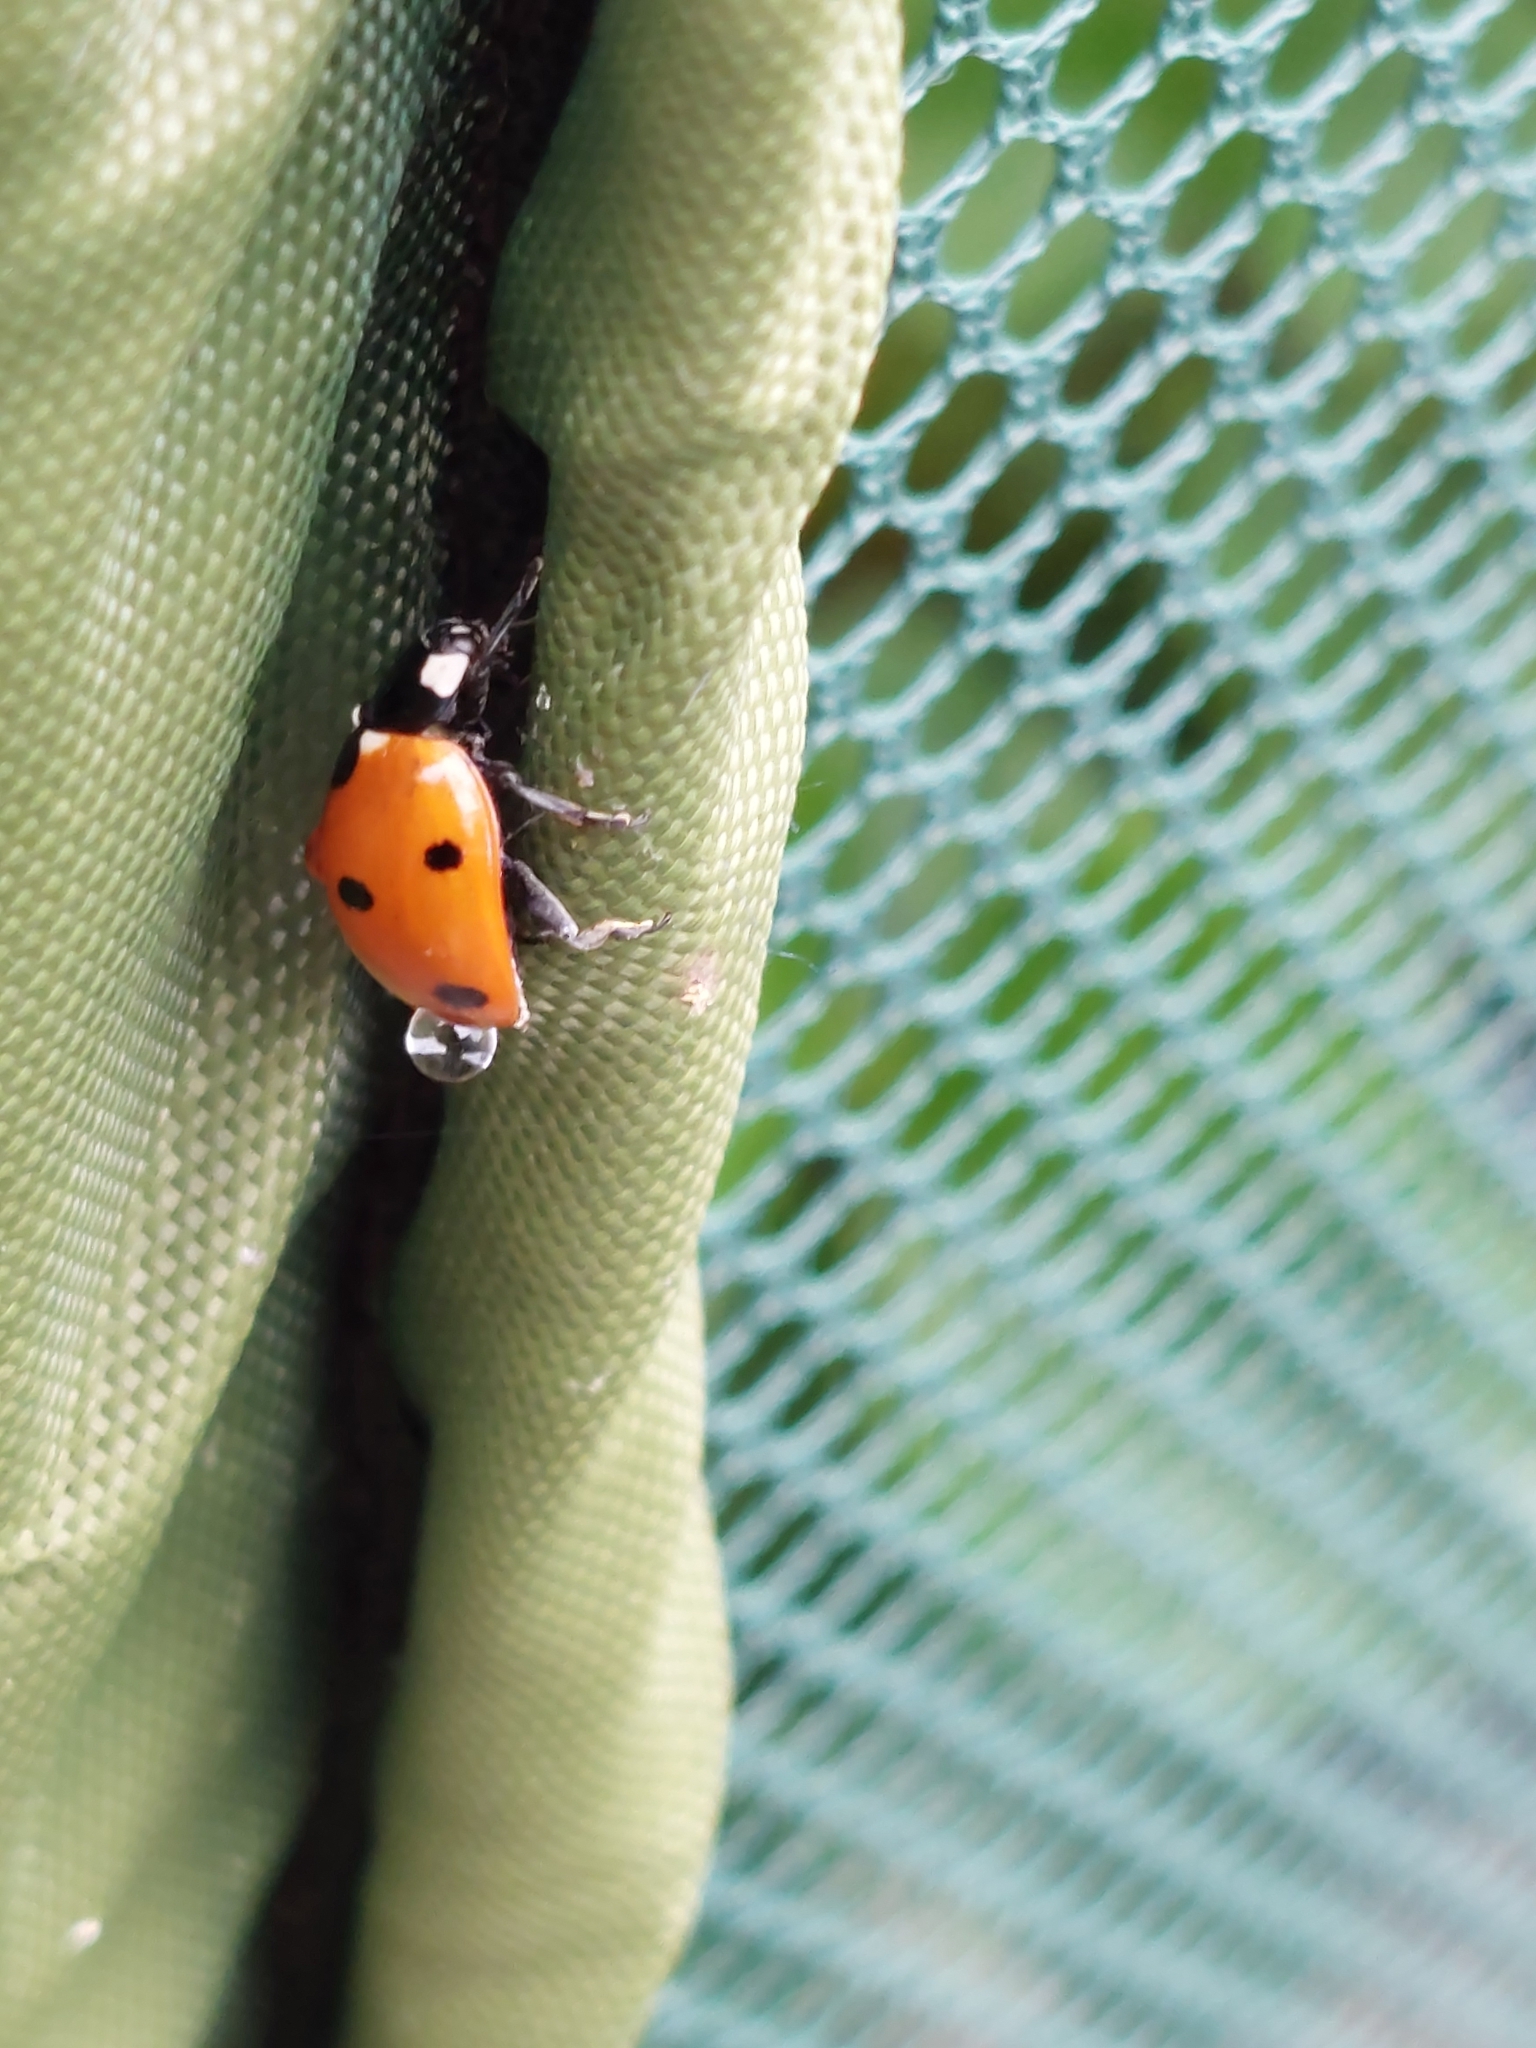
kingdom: Animalia
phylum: Arthropoda
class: Insecta
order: Coleoptera
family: Coccinellidae
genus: Coccinella
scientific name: Coccinella septempunctata
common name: Sevenspotted lady beetle
